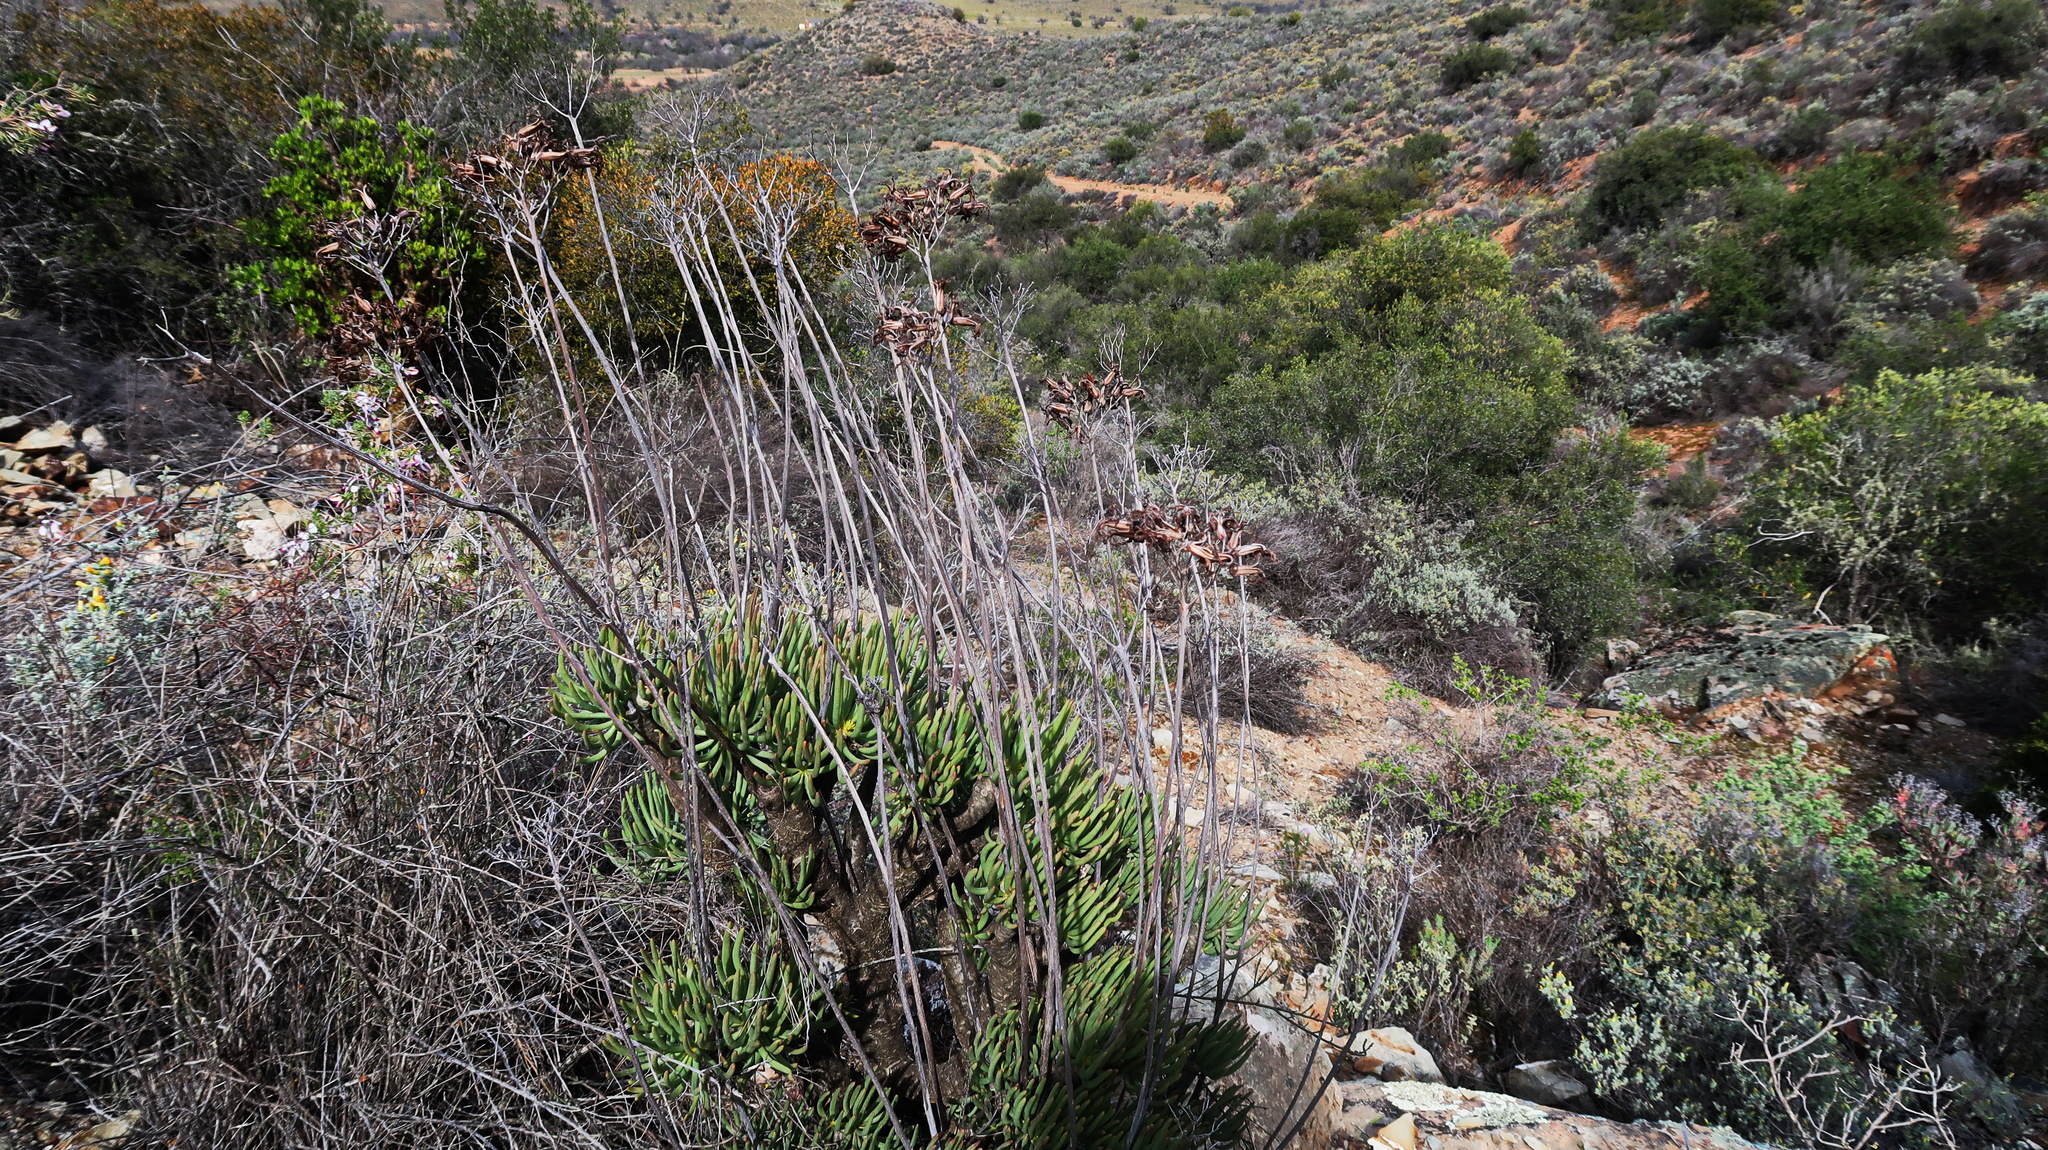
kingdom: Plantae
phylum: Tracheophyta
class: Magnoliopsida
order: Saxifragales
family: Crassulaceae
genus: Tylecodon
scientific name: Tylecodon cacaliodes
